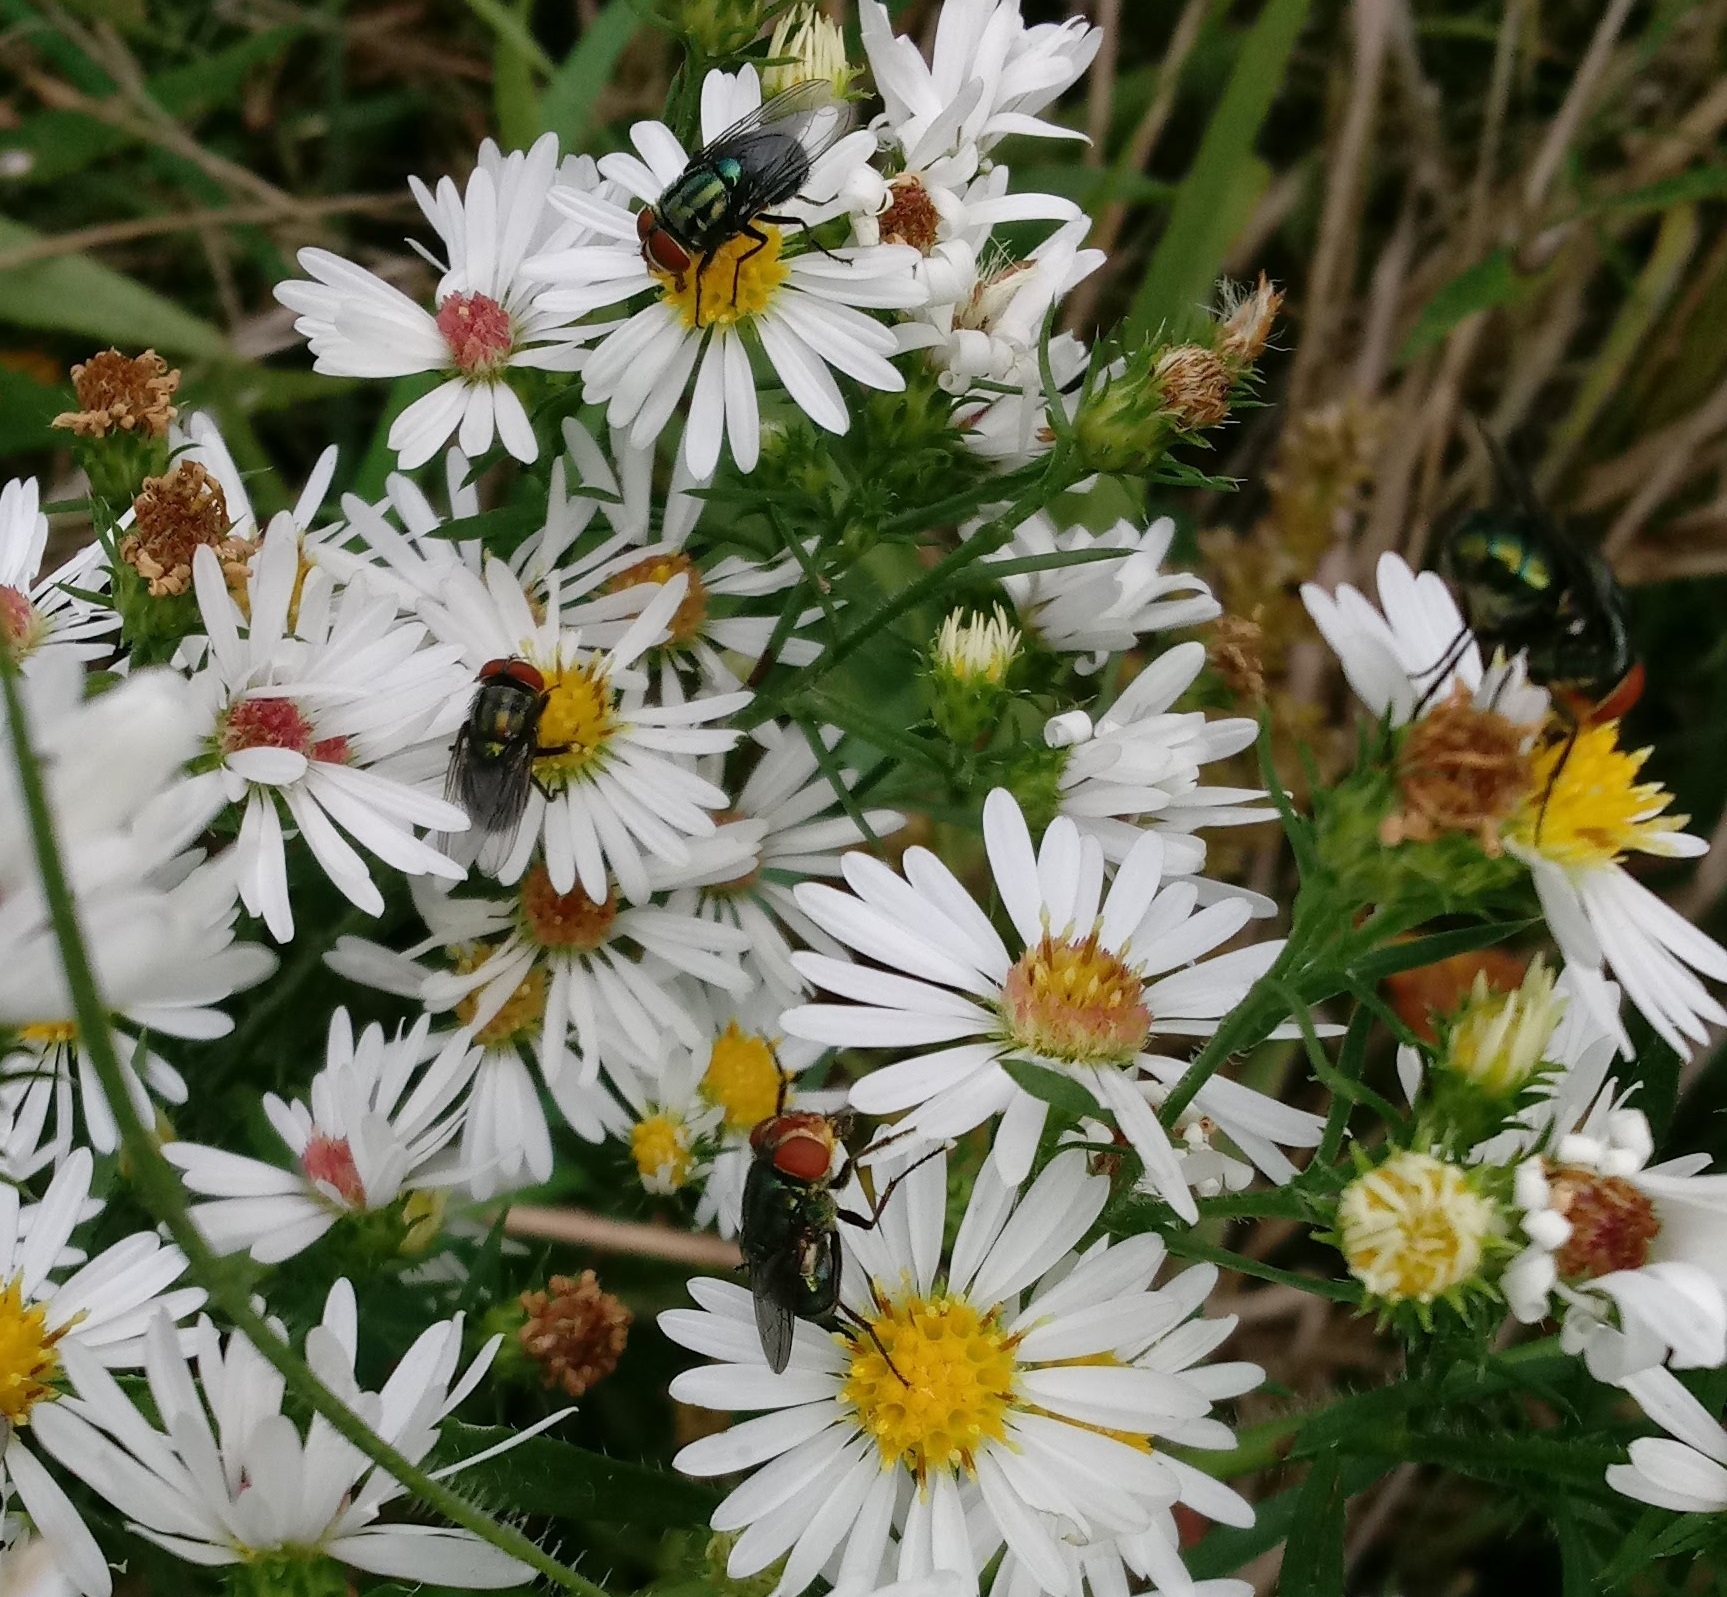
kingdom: Animalia
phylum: Arthropoda
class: Insecta
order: Diptera
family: Calliphoridae
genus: Cochliomyia
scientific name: Cochliomyia macellaria
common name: Secondary screwworm
